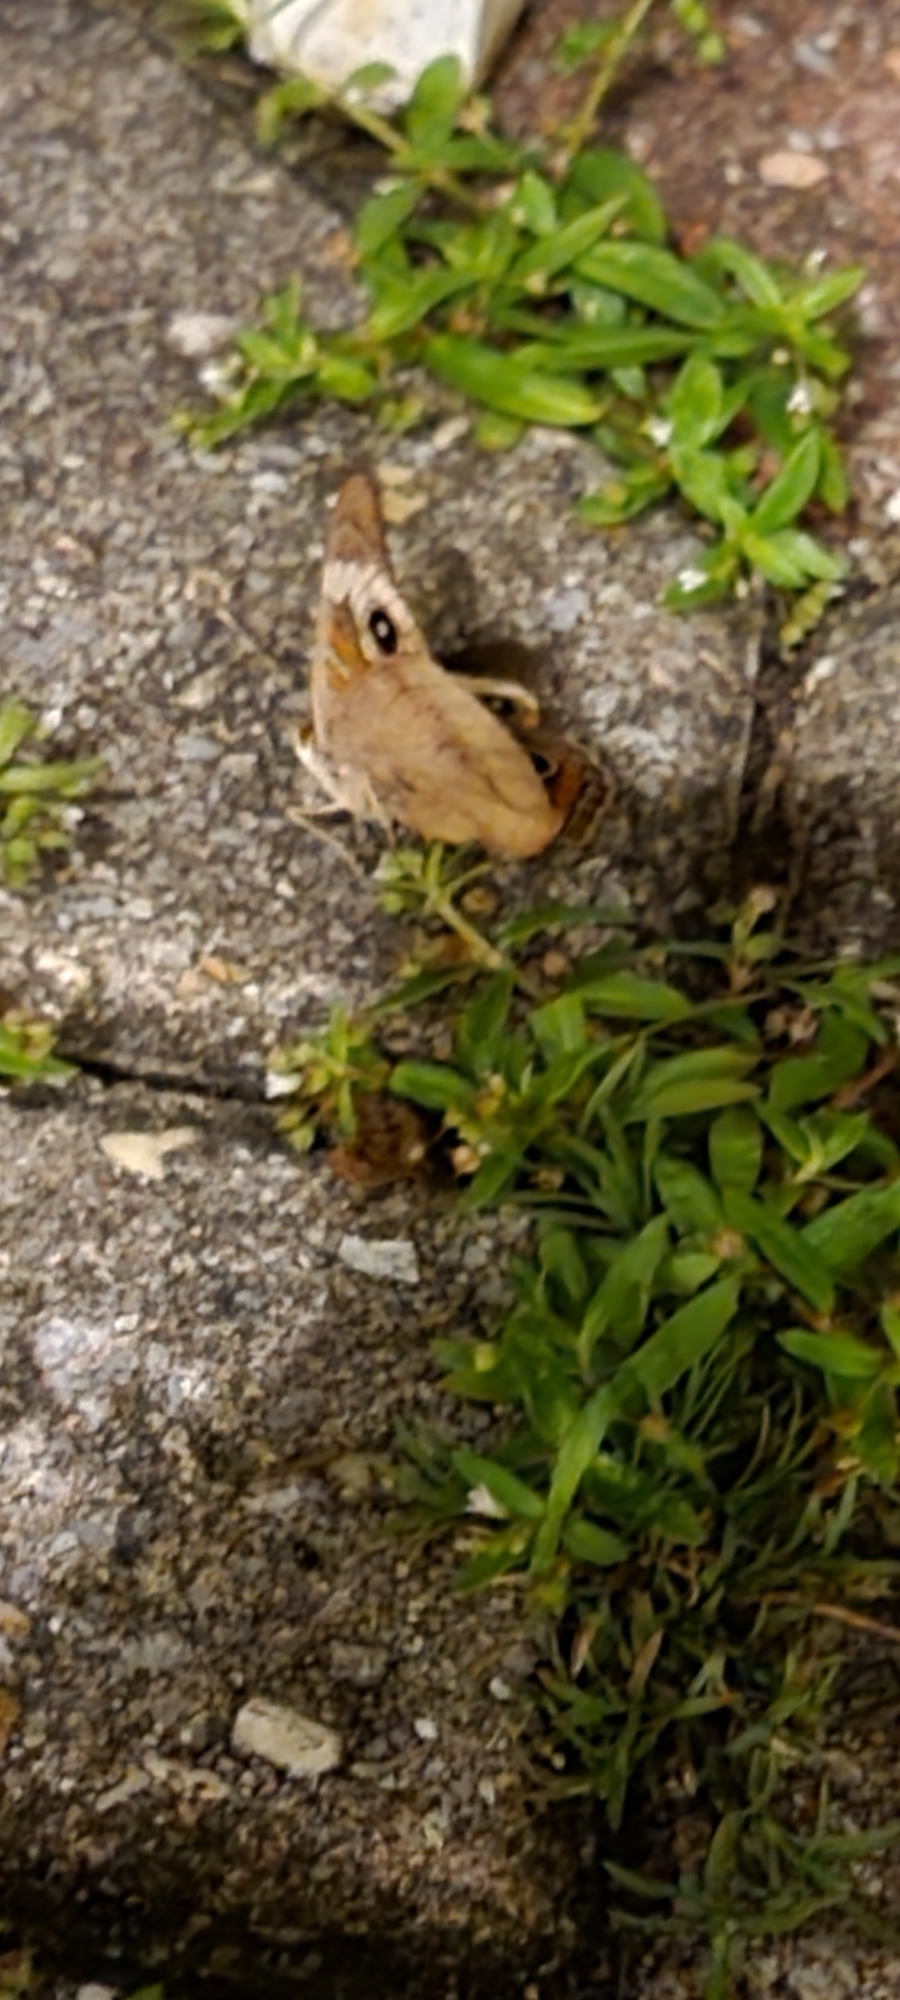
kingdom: Animalia
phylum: Arthropoda
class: Insecta
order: Lepidoptera
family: Nymphalidae
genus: Junonia
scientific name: Junonia coenia
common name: Common buckeye
